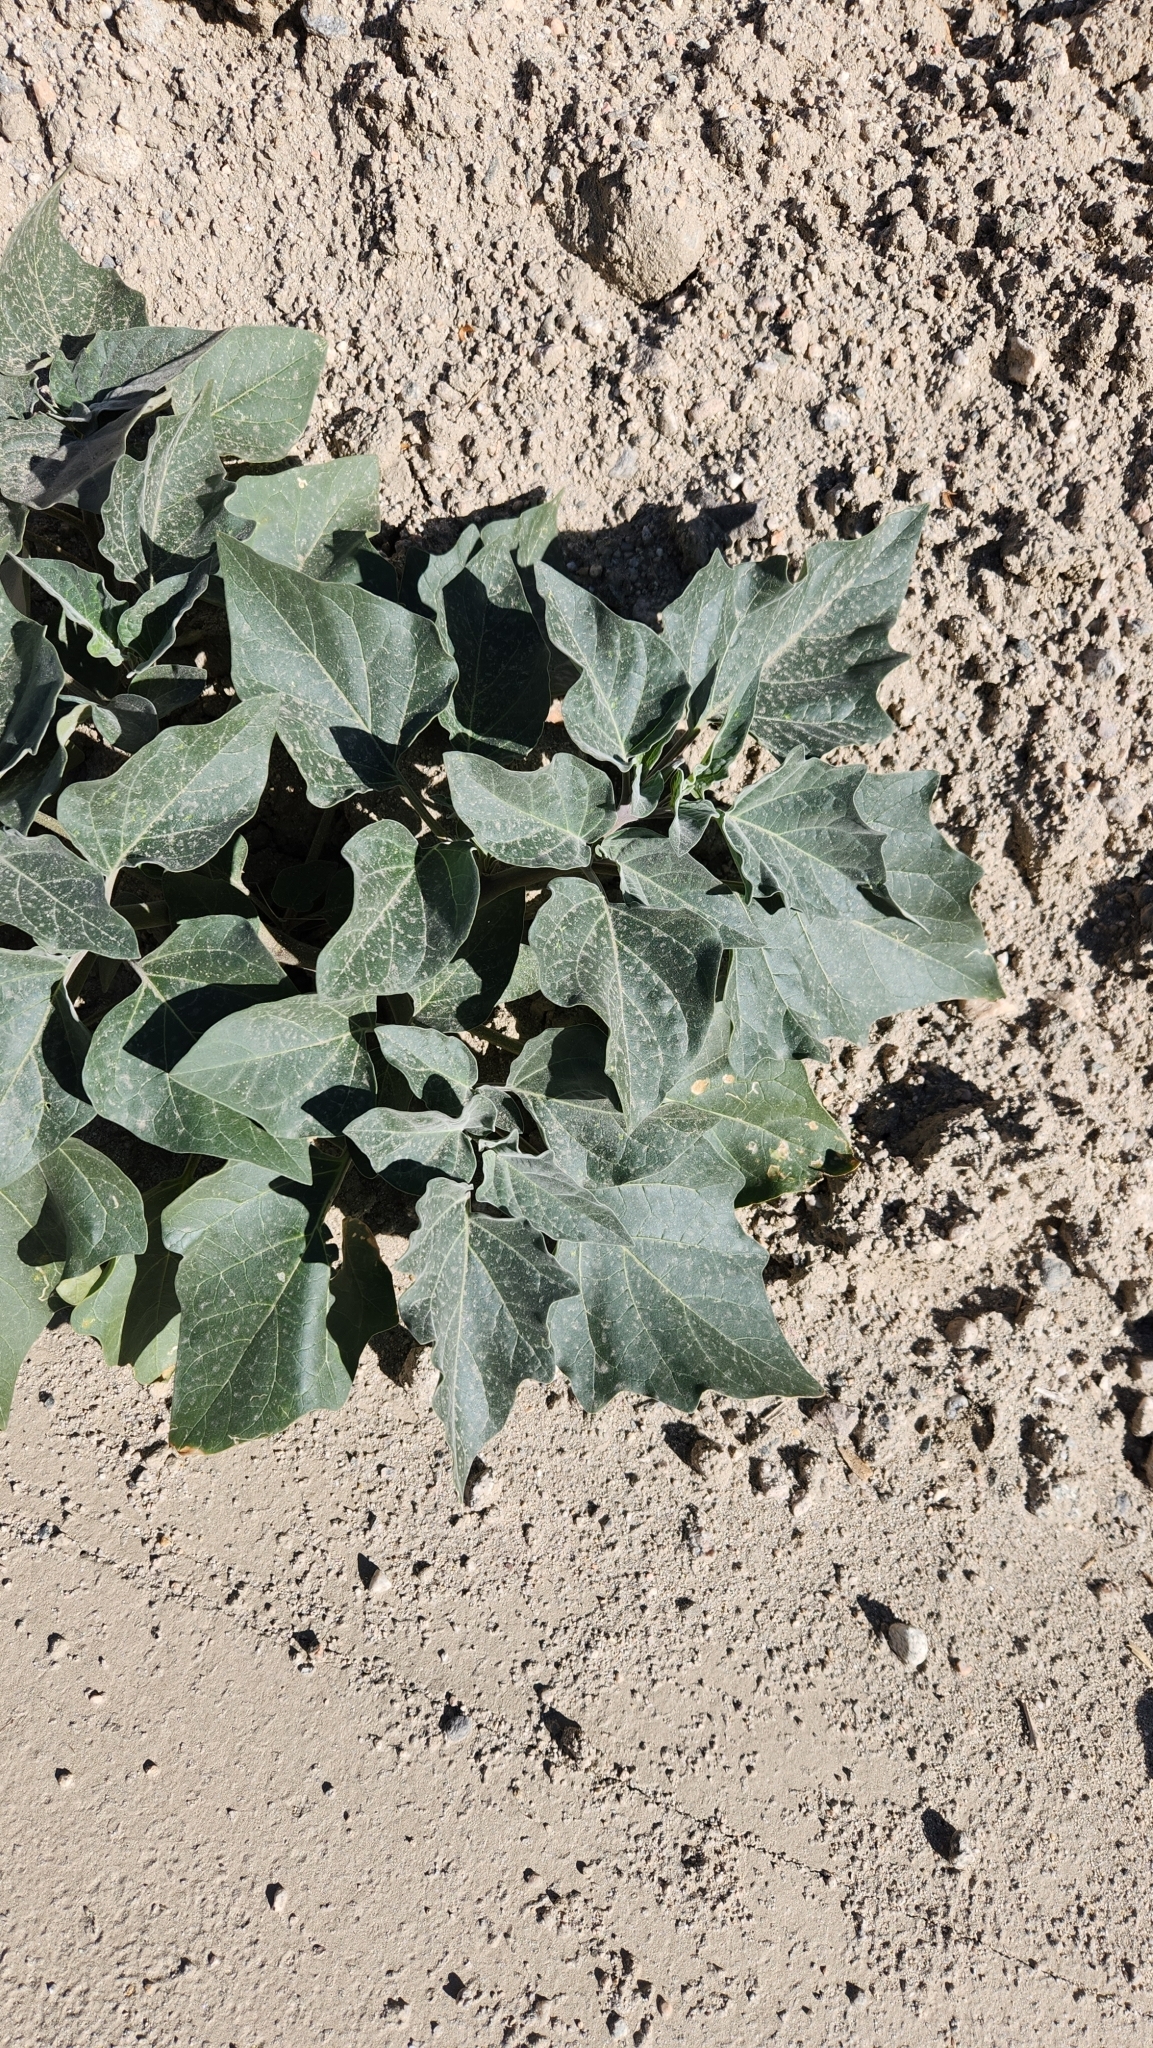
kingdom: Plantae
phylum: Tracheophyta
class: Magnoliopsida
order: Solanales
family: Solanaceae
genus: Datura
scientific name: Datura wrightii
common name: Sacred thorn-apple
